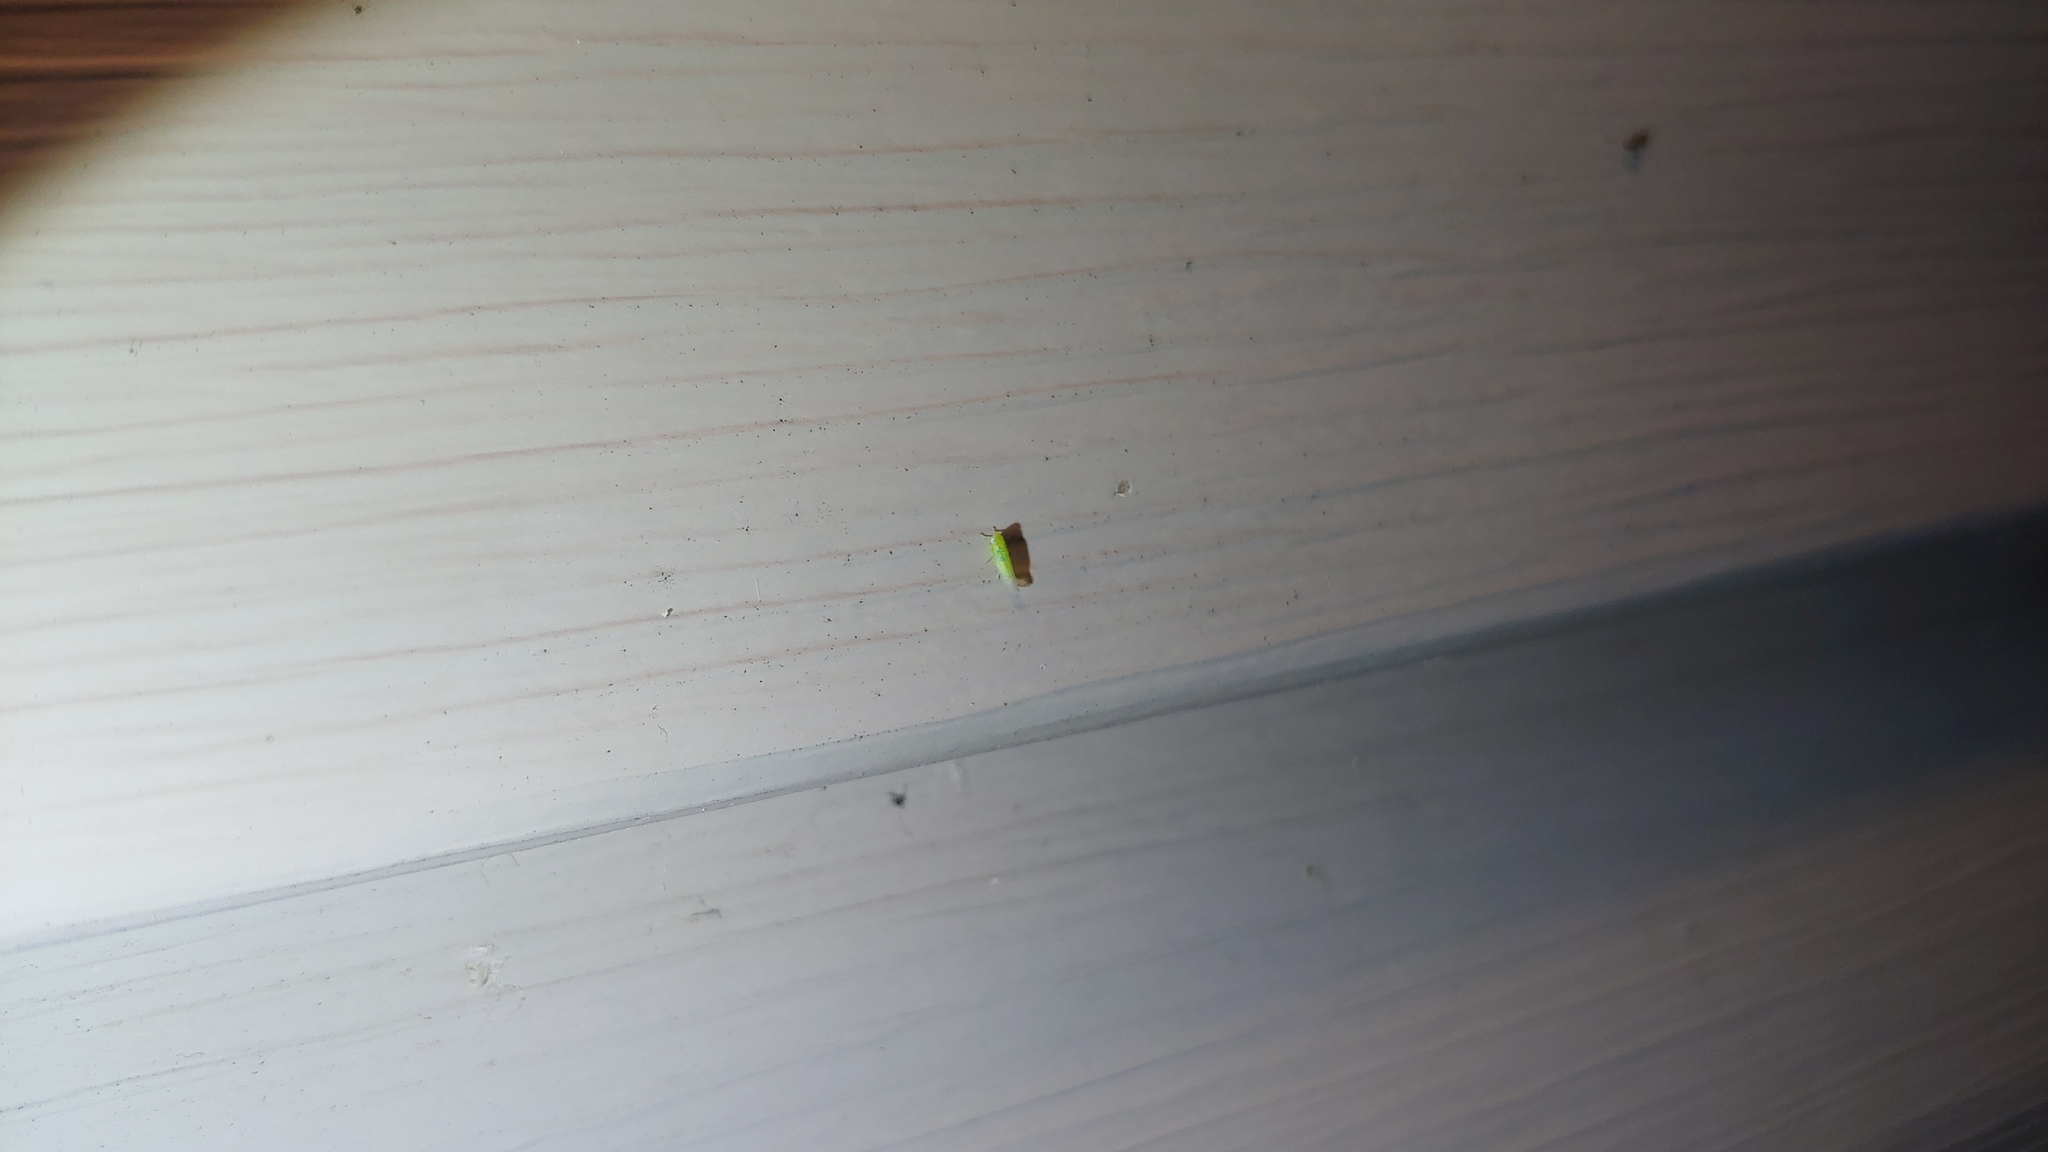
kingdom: Animalia
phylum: Arthropoda
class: Insecta
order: Hemiptera
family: Cicadellidae
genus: Empoasca
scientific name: Empoasca fabae
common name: Potato leafhopper
